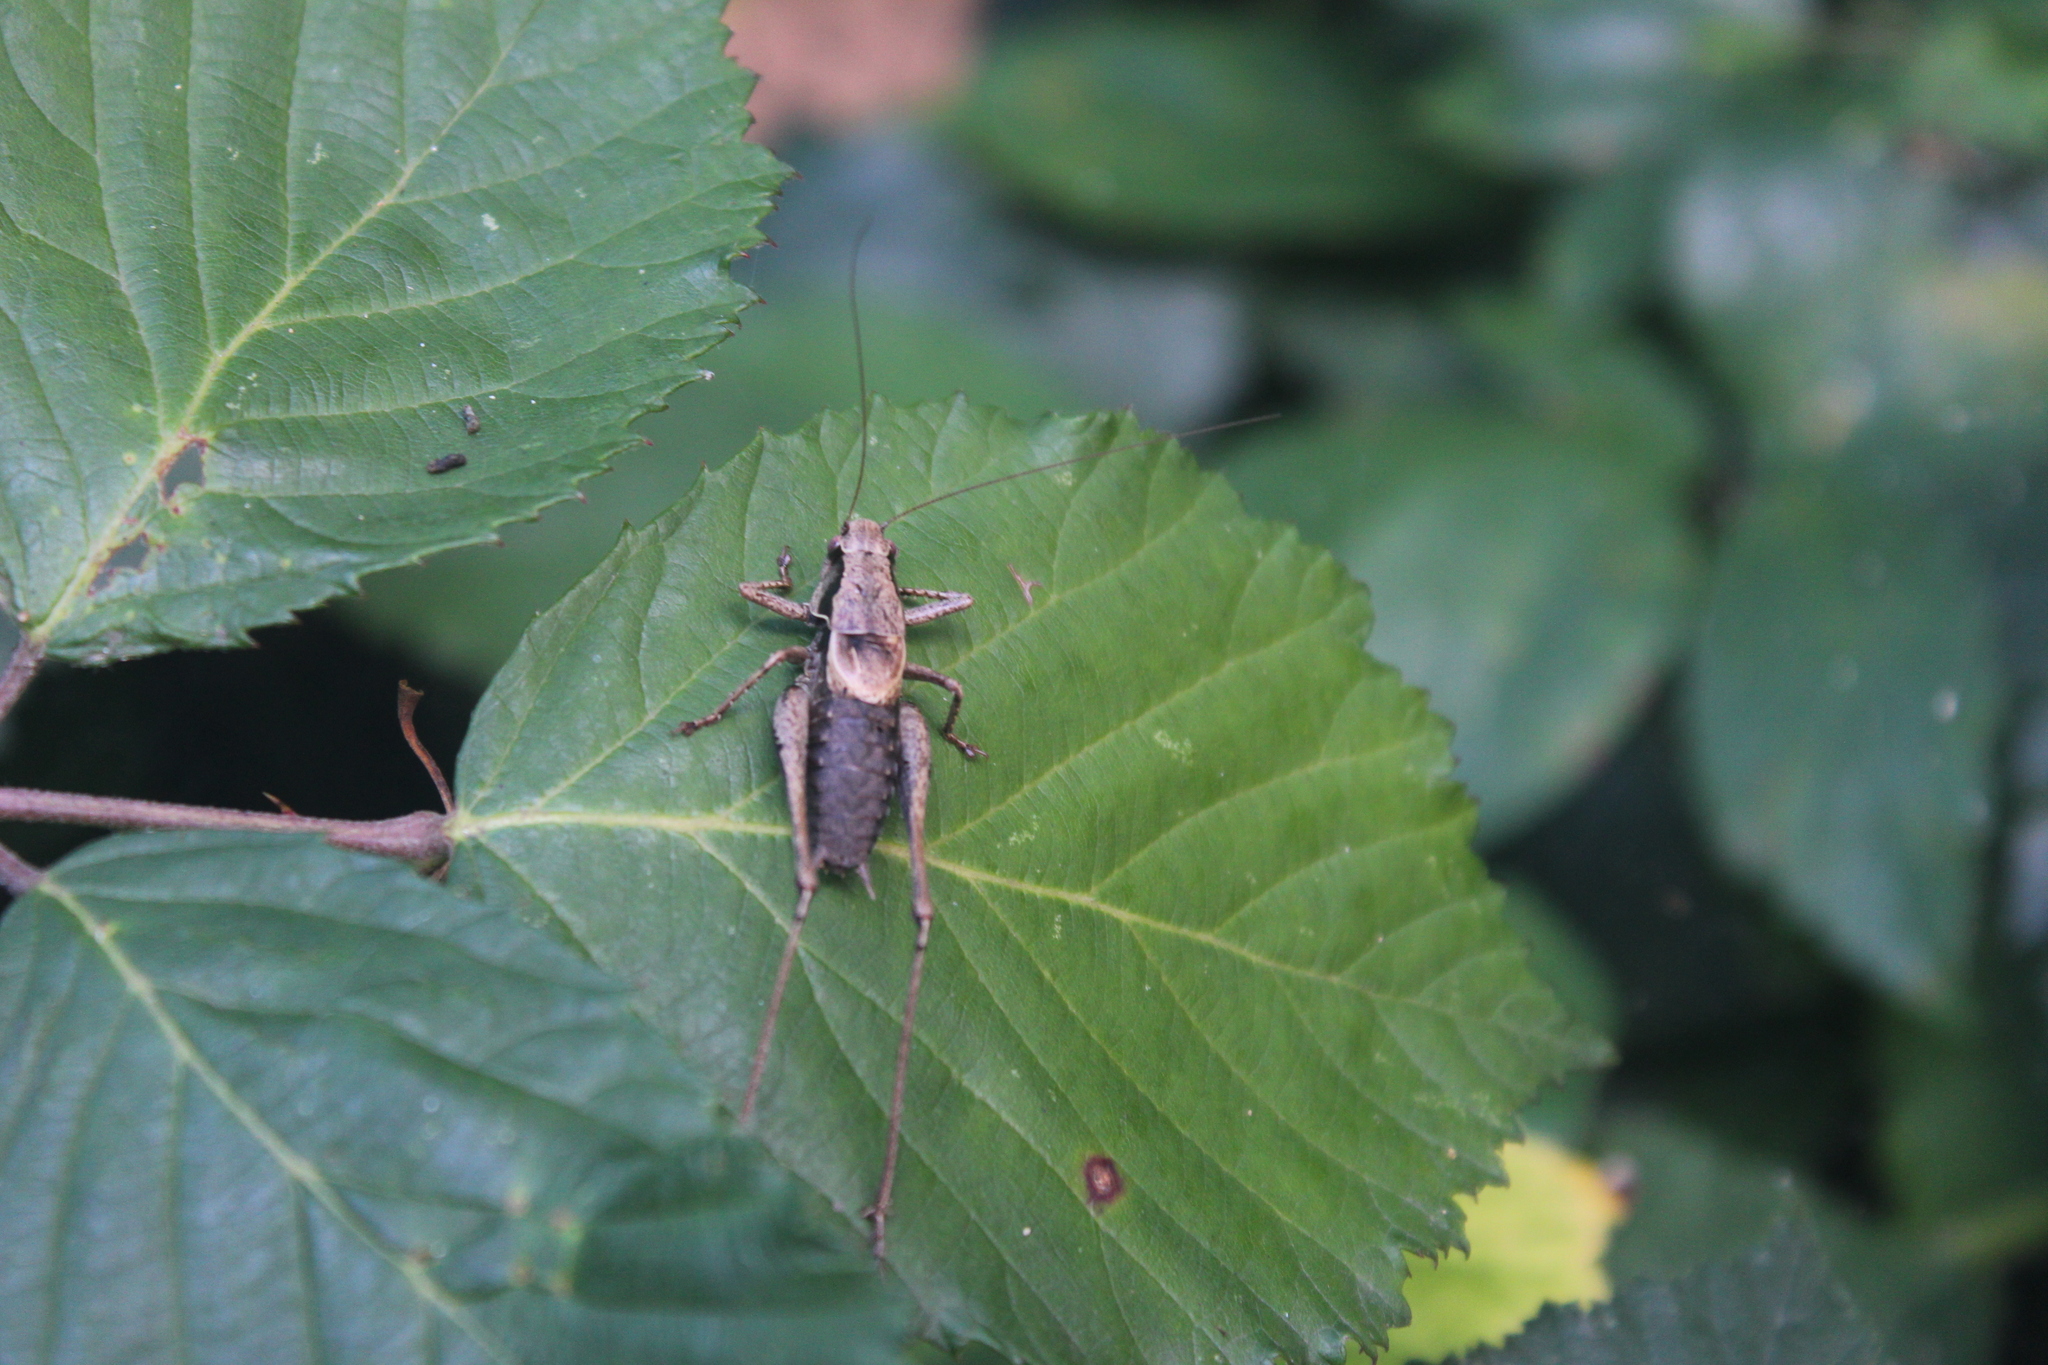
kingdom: Animalia
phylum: Arthropoda
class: Insecta
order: Orthoptera
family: Tettigoniidae
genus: Pholidoptera
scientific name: Pholidoptera griseoaptera
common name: Dark bush-cricket
